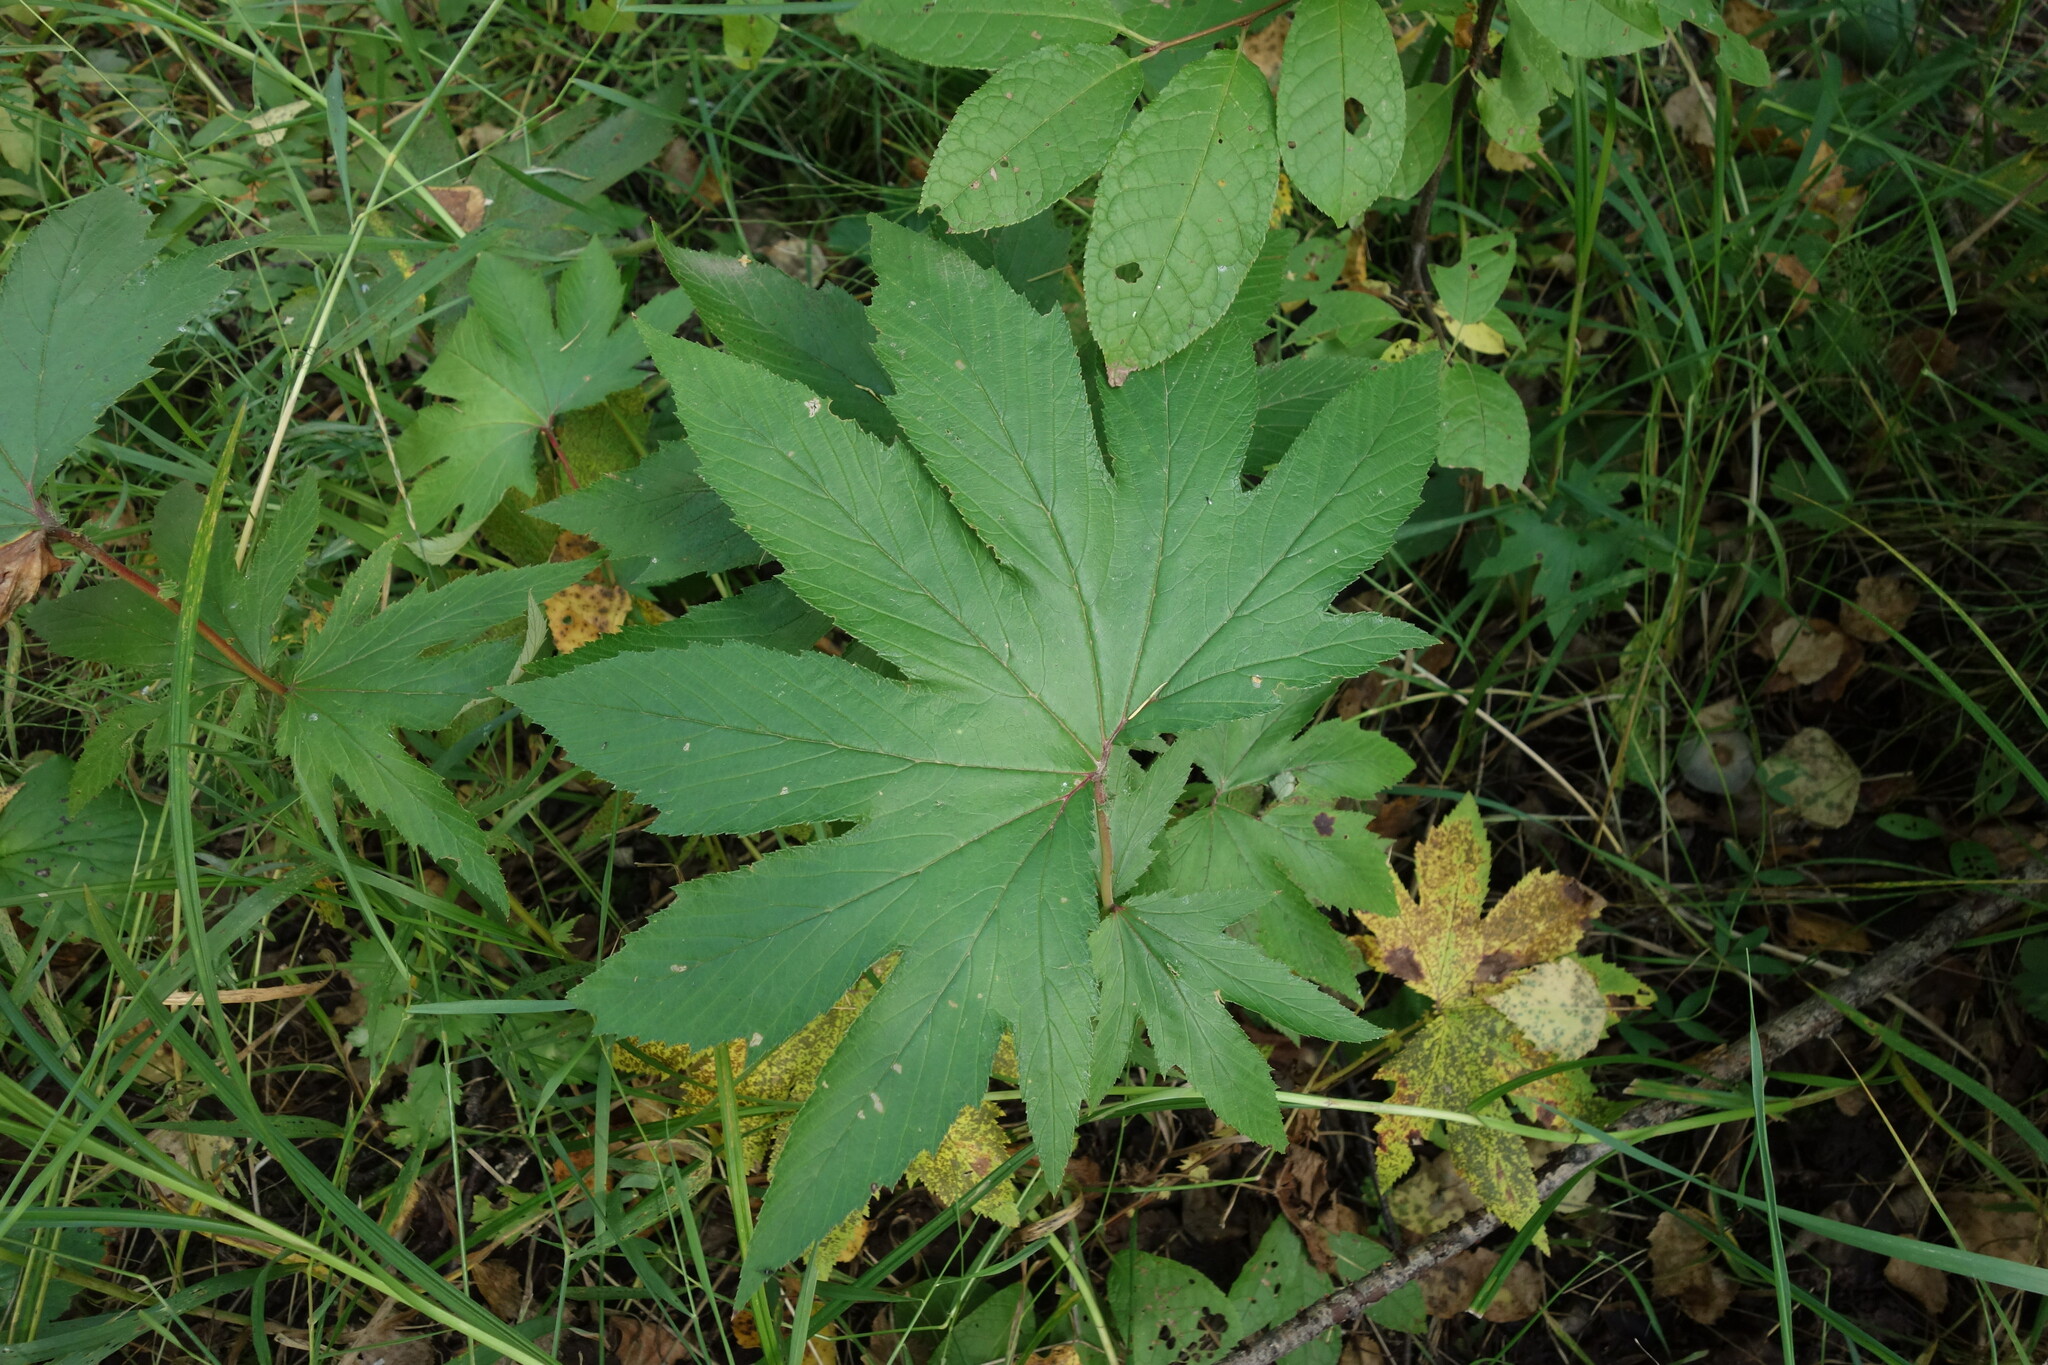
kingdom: Plantae
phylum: Tracheophyta
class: Magnoliopsida
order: Rosales
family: Rosaceae
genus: Filipendula
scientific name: Filipendula digitata
